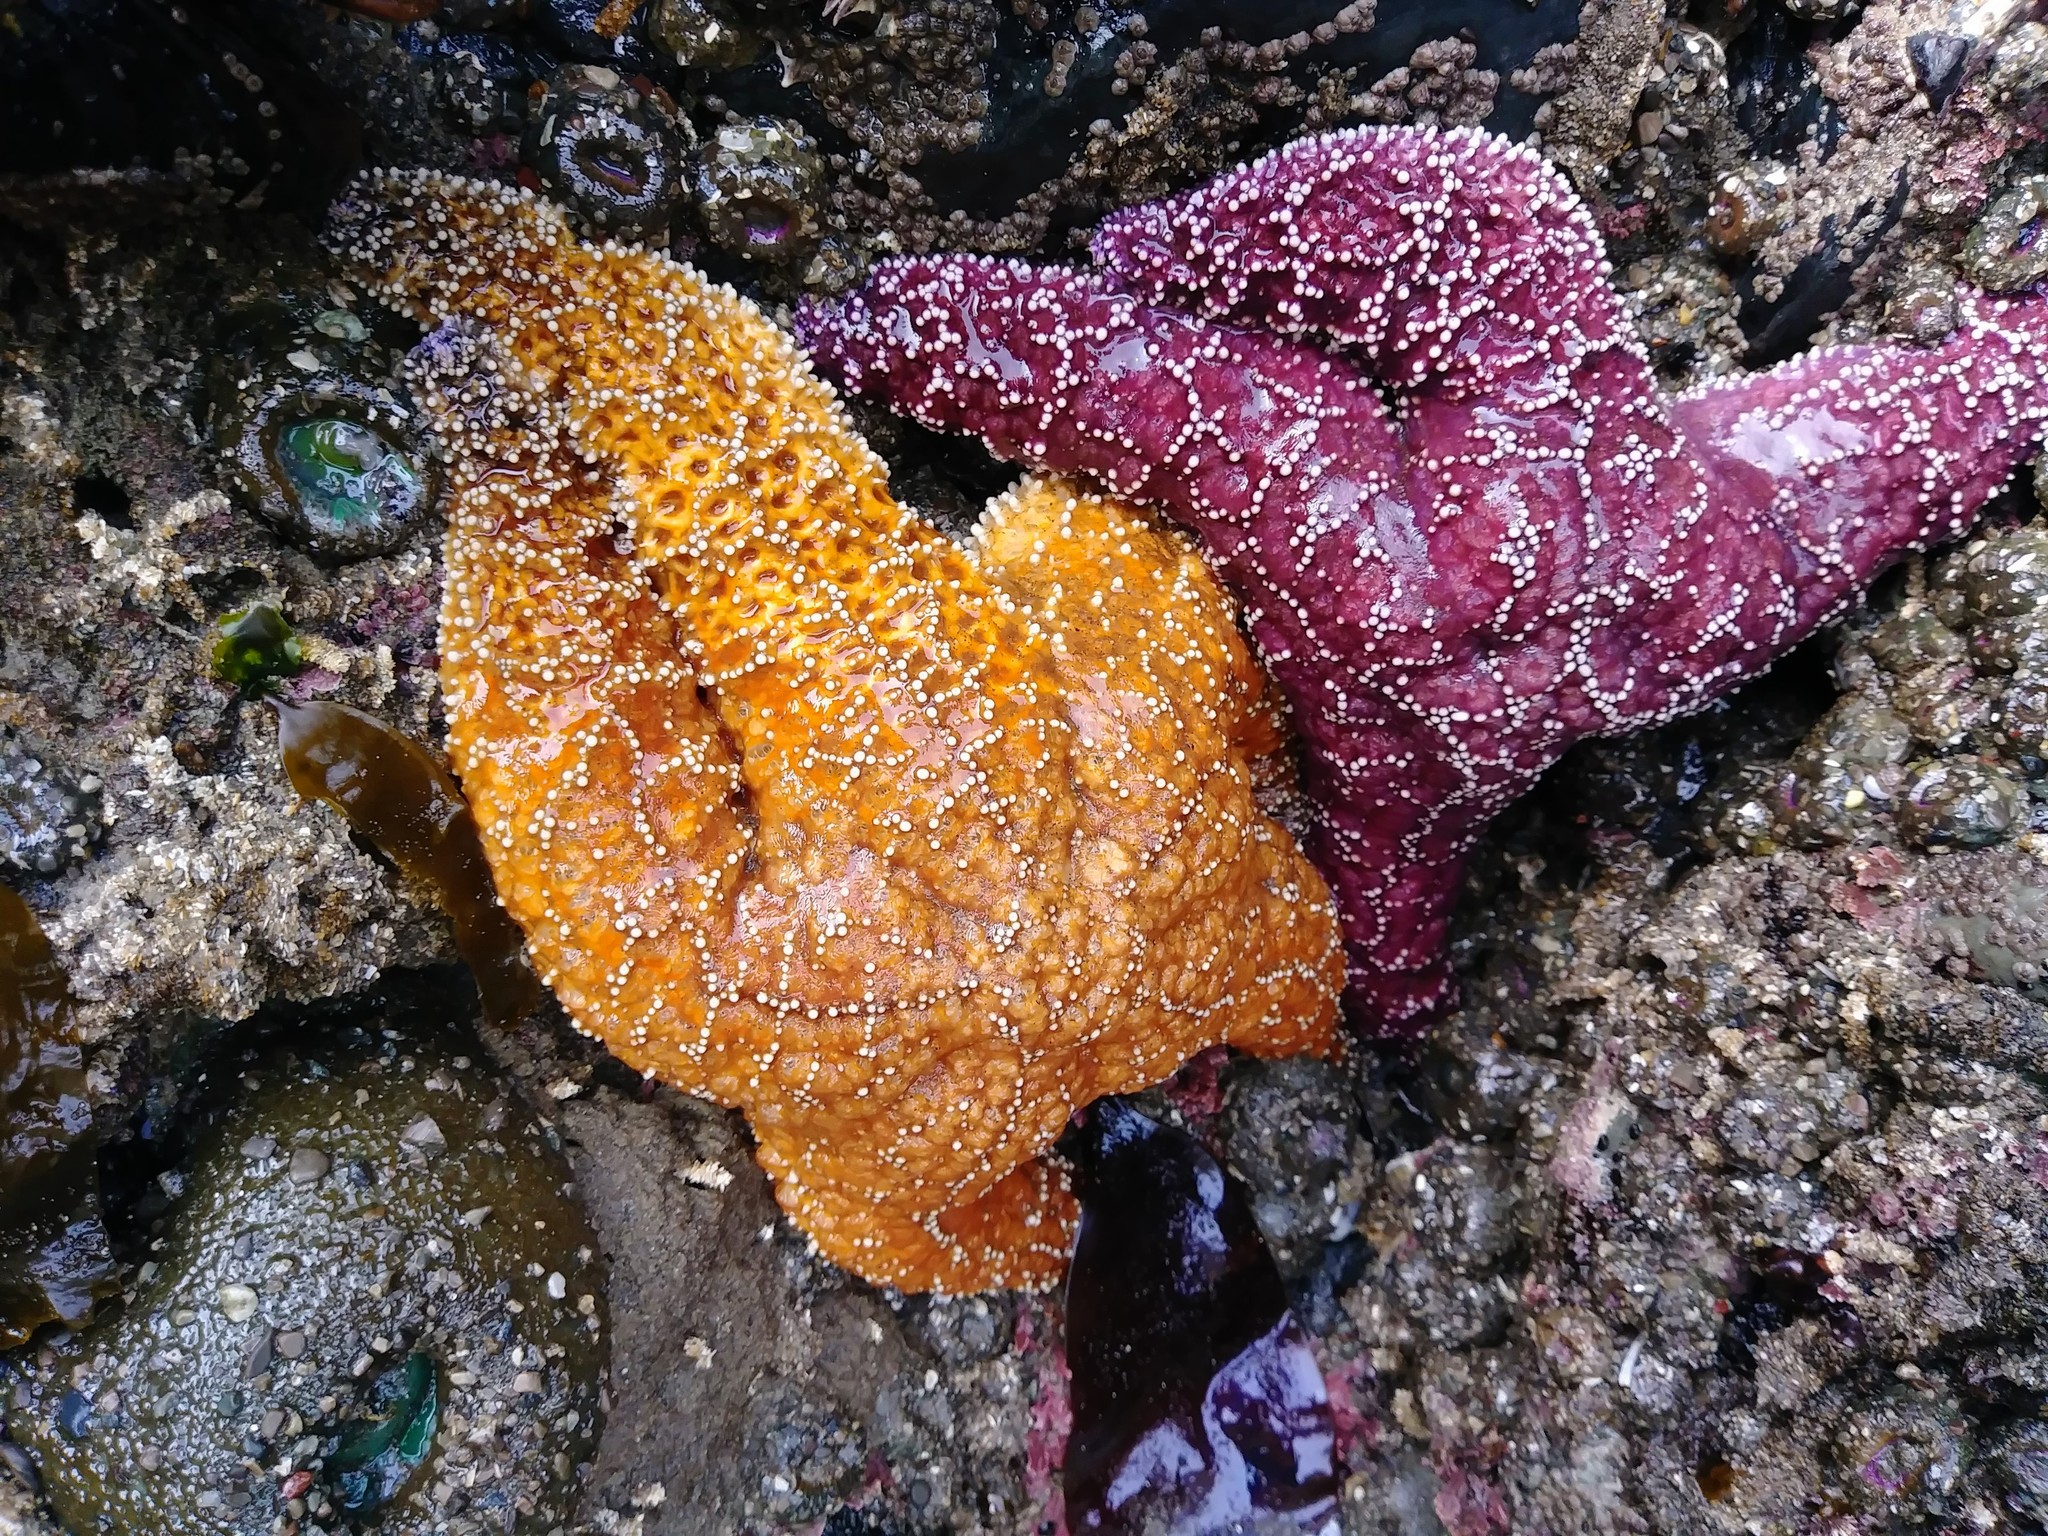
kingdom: Animalia
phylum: Echinodermata
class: Asteroidea
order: Forcipulatida
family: Asteriidae
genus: Pisaster
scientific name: Pisaster ochraceus
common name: Ochre stars
